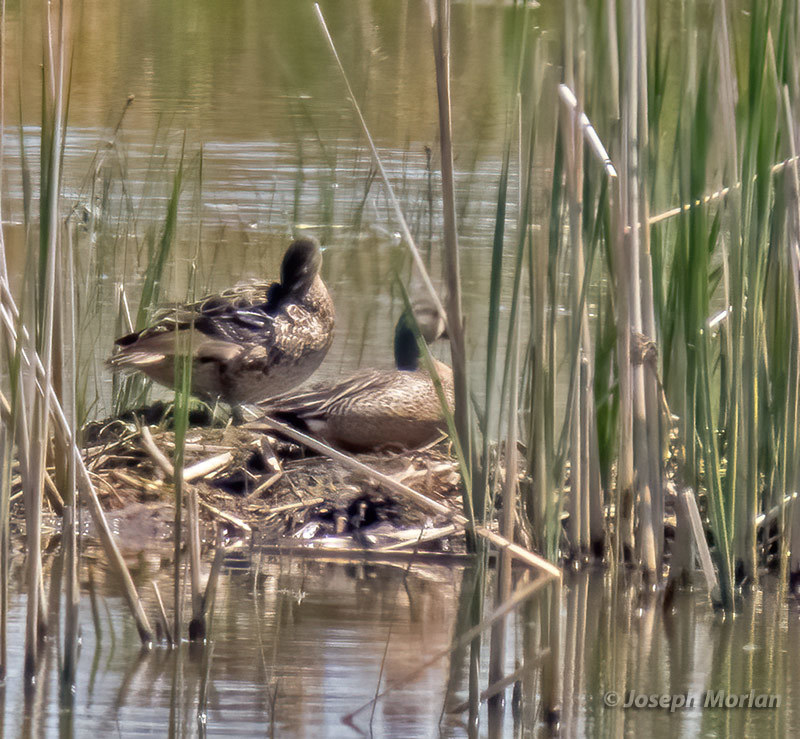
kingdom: Animalia
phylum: Chordata
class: Aves
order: Anseriformes
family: Anatidae
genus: Spatula
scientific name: Spatula discors
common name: Blue-winged teal
